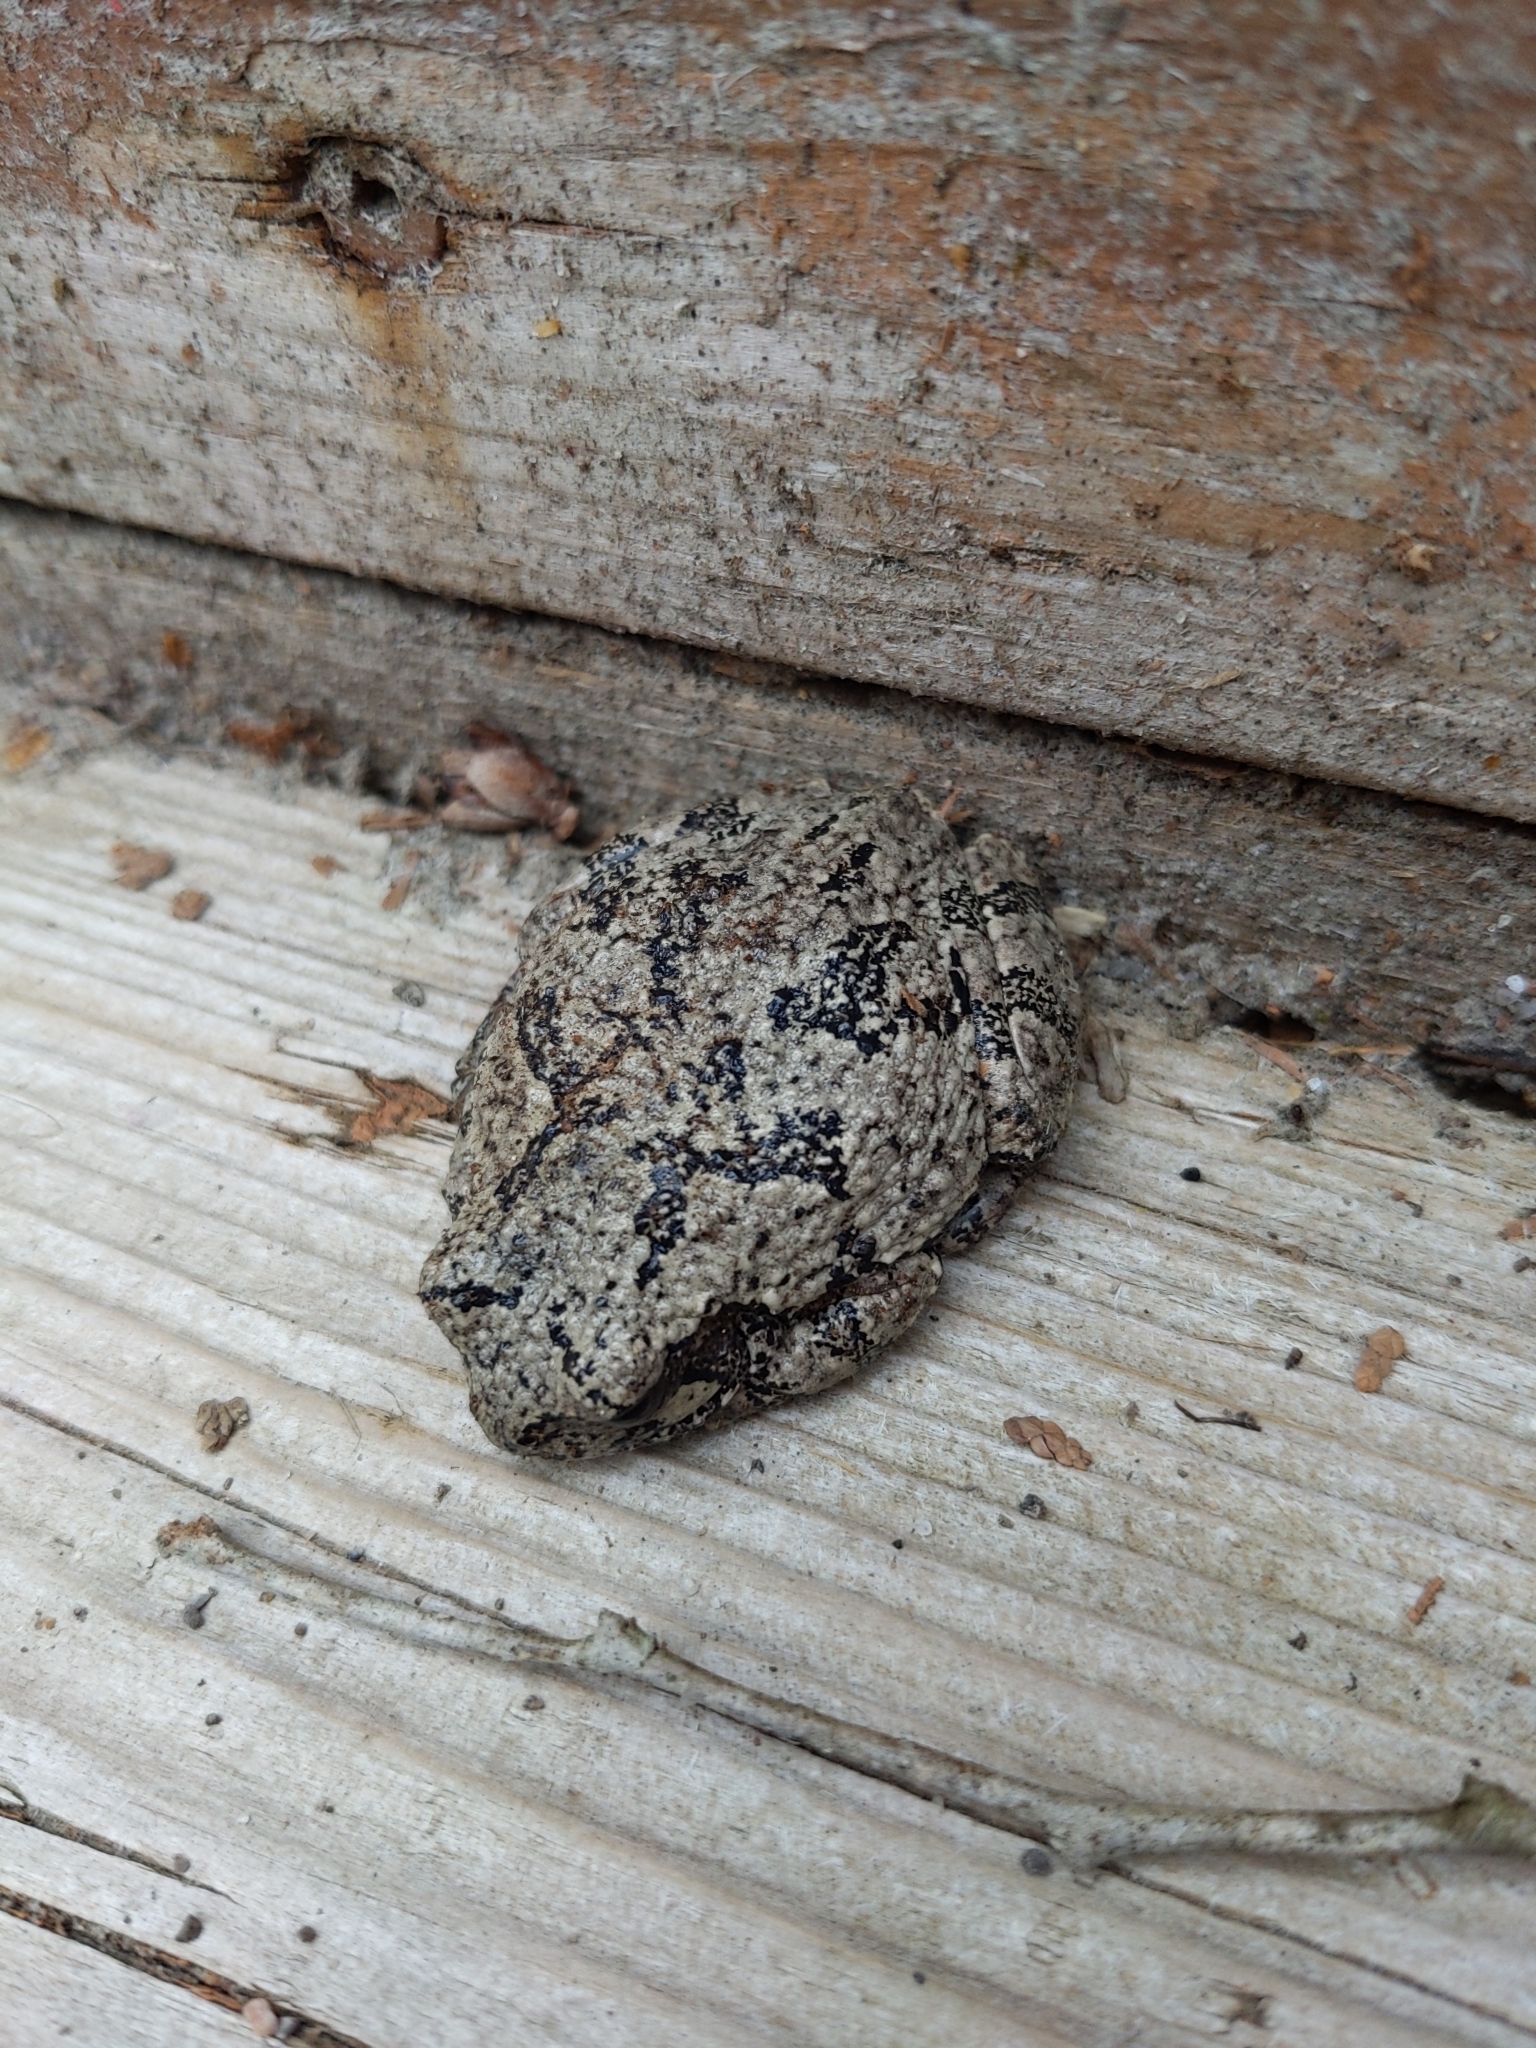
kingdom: Animalia
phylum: Chordata
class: Amphibia
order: Anura
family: Hylidae
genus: Dryophytes
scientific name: Dryophytes versicolor
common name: Gray treefrog
